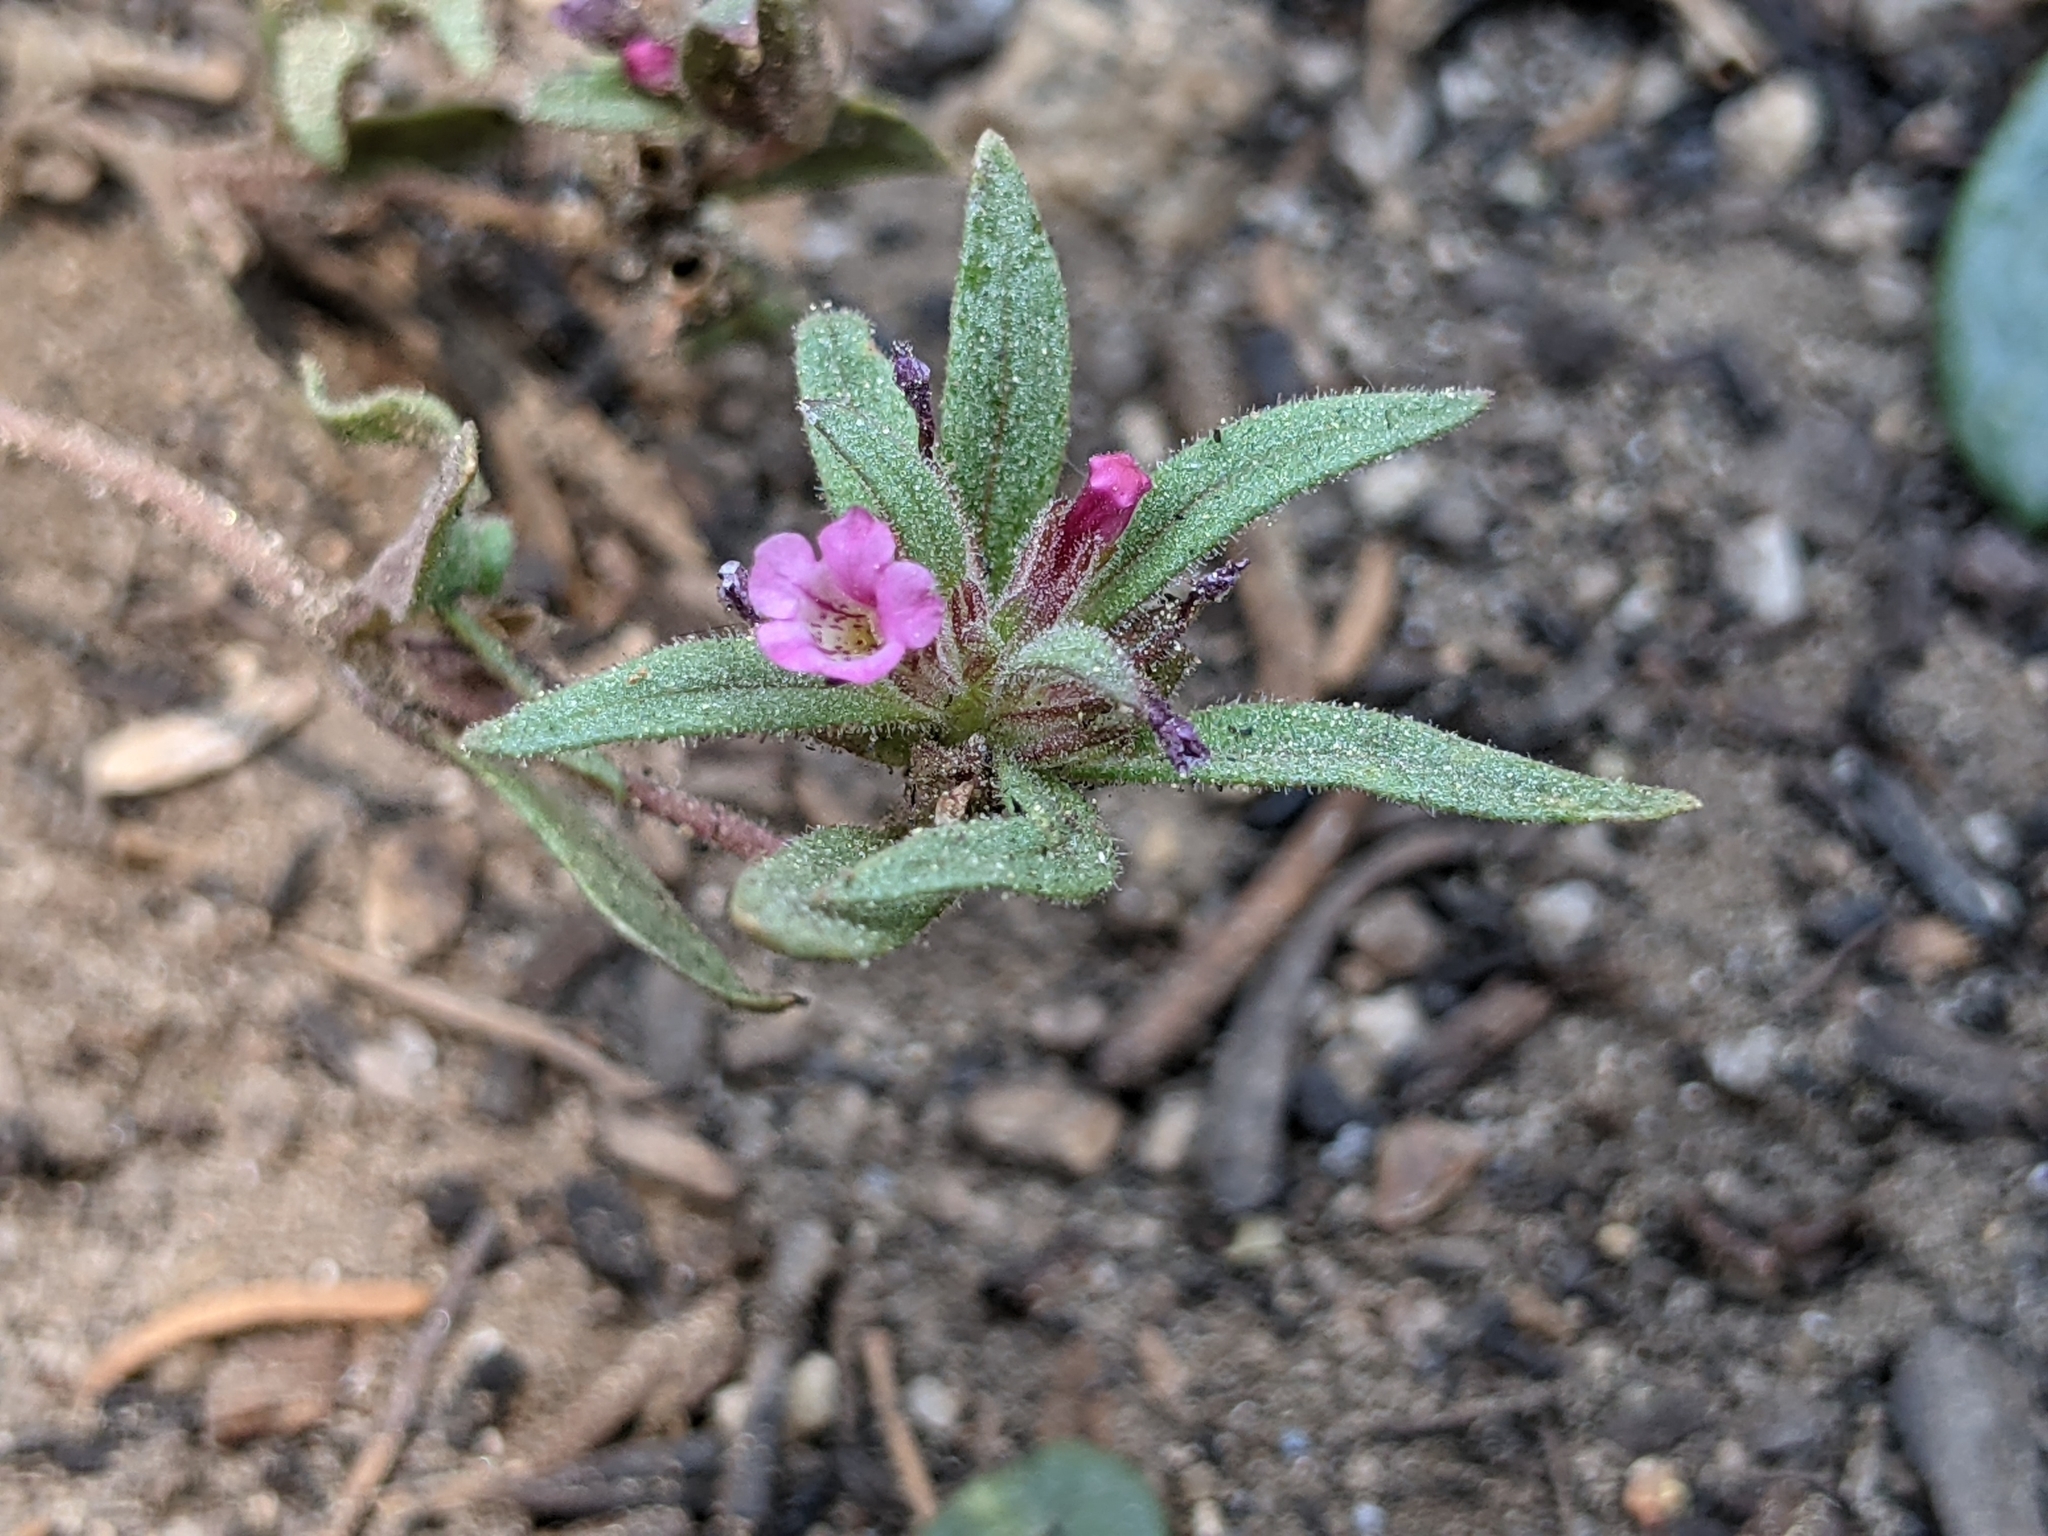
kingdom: Plantae
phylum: Tracheophyta
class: Magnoliopsida
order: Lamiales
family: Phrymaceae
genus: Diplacus
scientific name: Diplacus leptaleus
